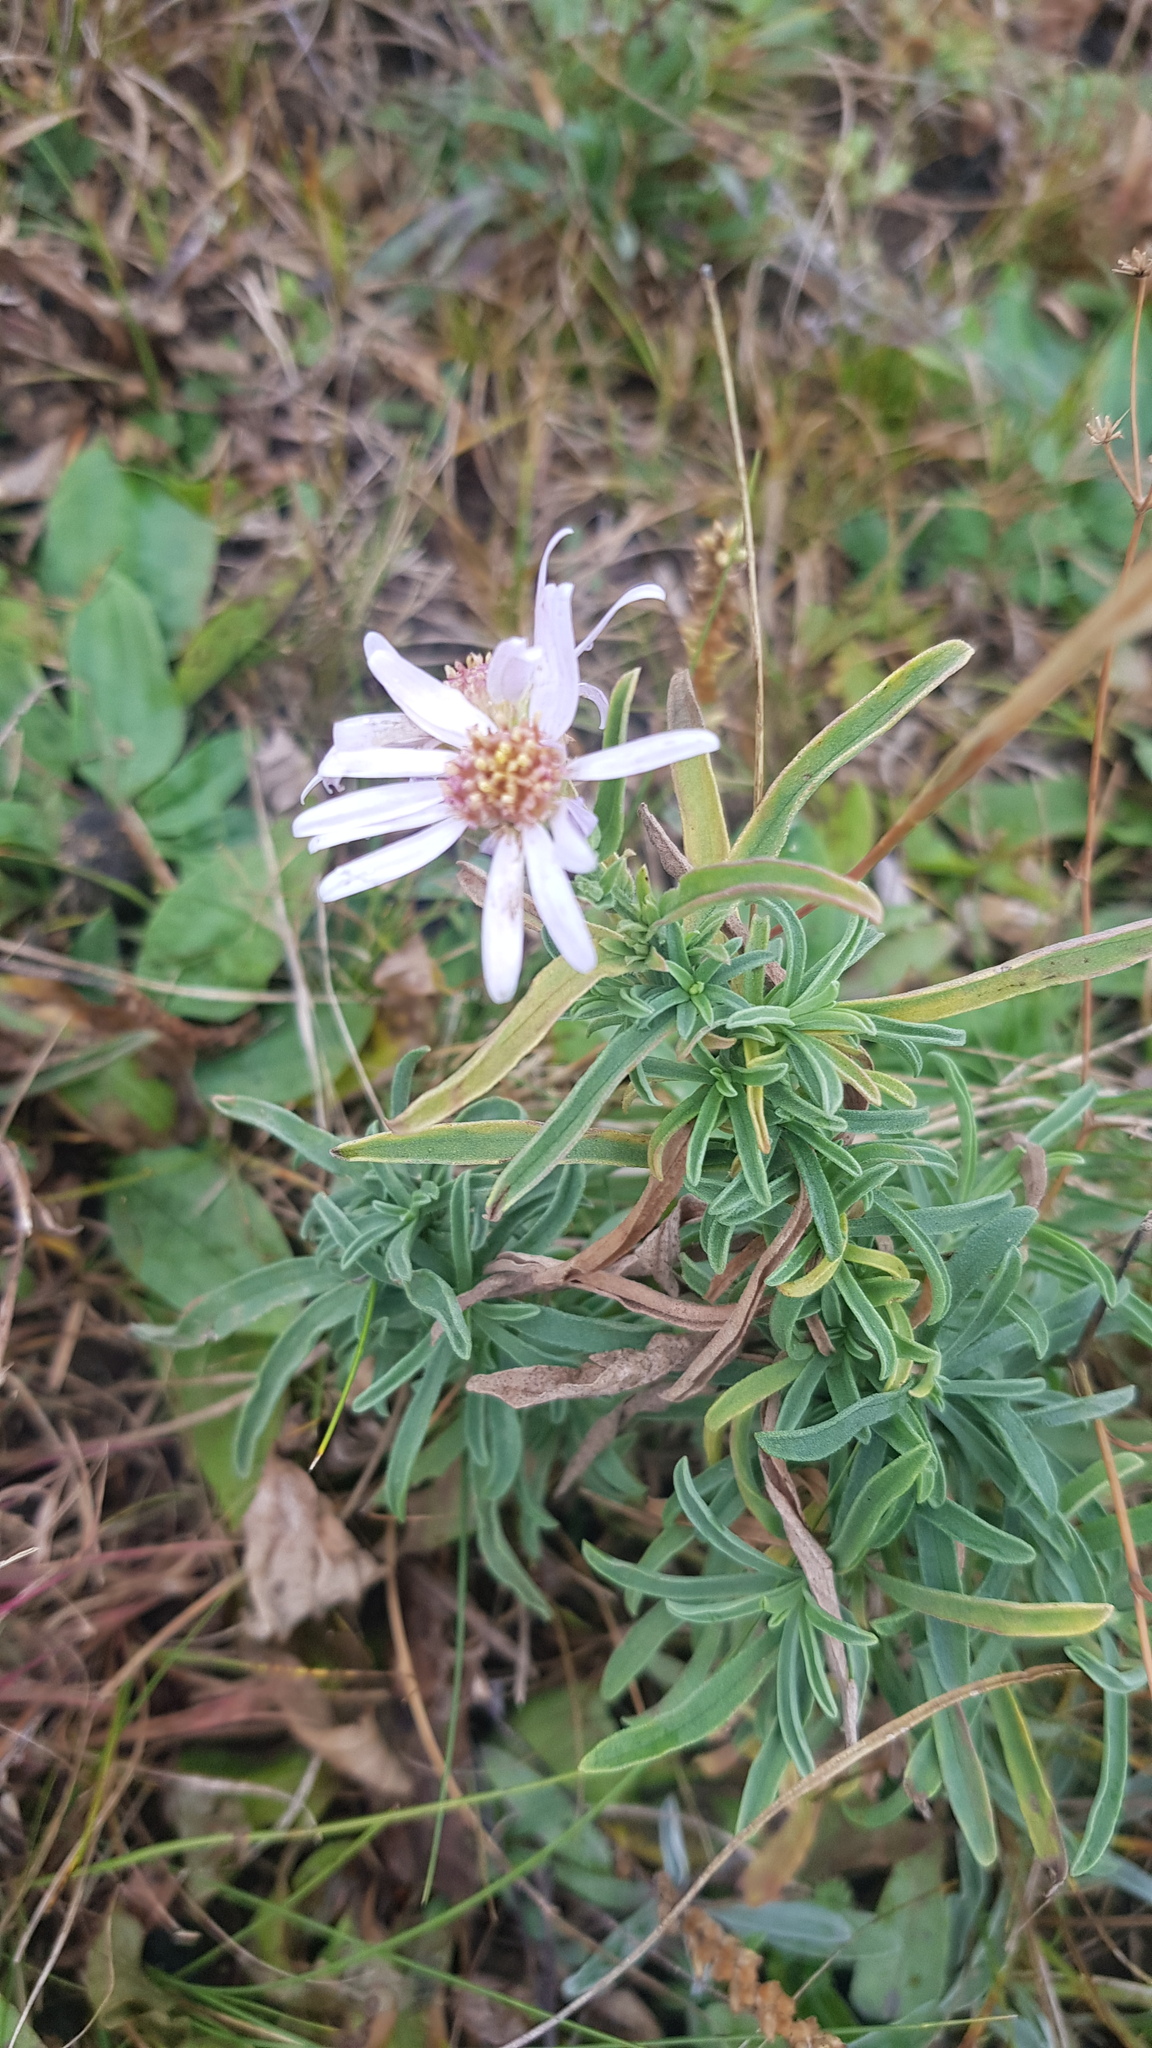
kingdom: Plantae
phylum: Tracheophyta
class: Magnoliopsida
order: Asterales
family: Asteraceae
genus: Heteropappus
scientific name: Heteropappus altaicus
